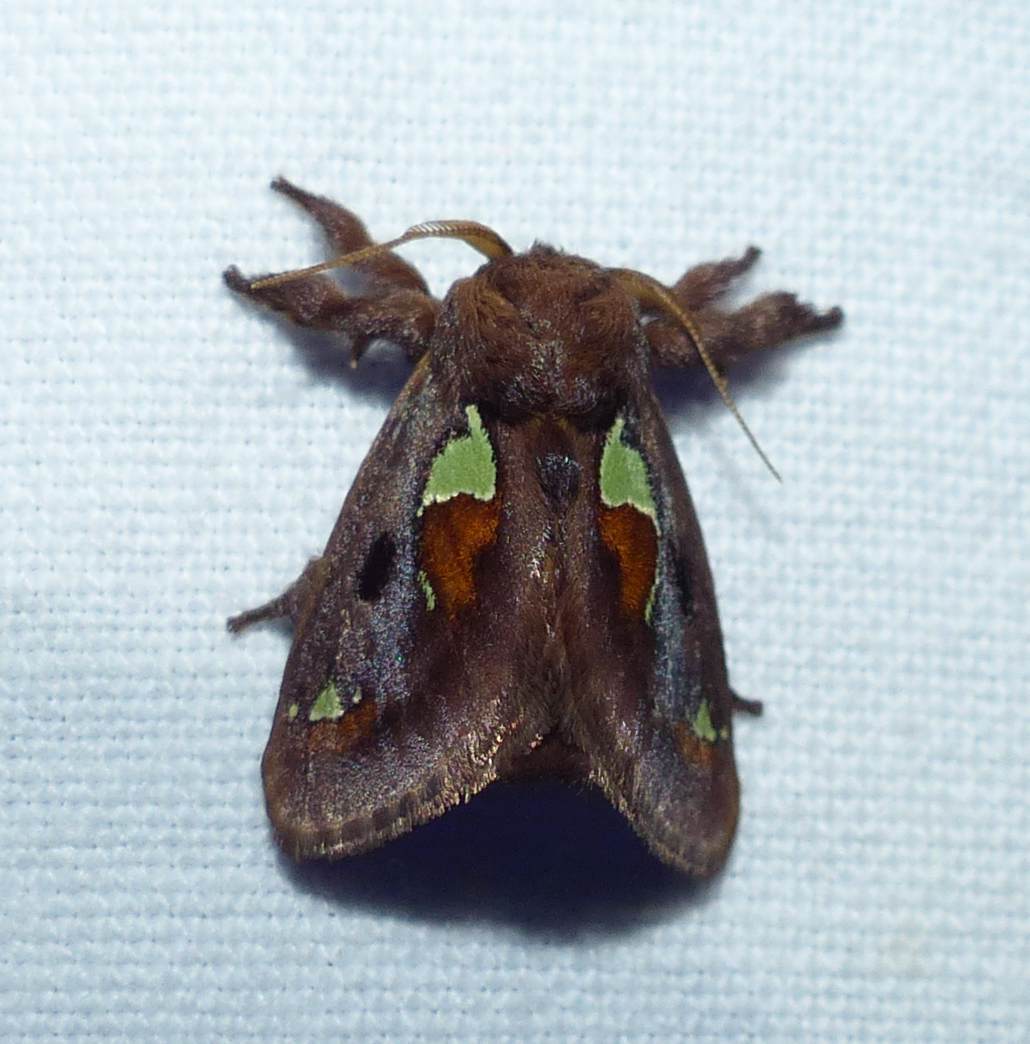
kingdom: Animalia
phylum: Arthropoda
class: Insecta
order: Lepidoptera
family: Limacodidae
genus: Euclea
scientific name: Euclea delphinii
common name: Spiny oak-slug moth
